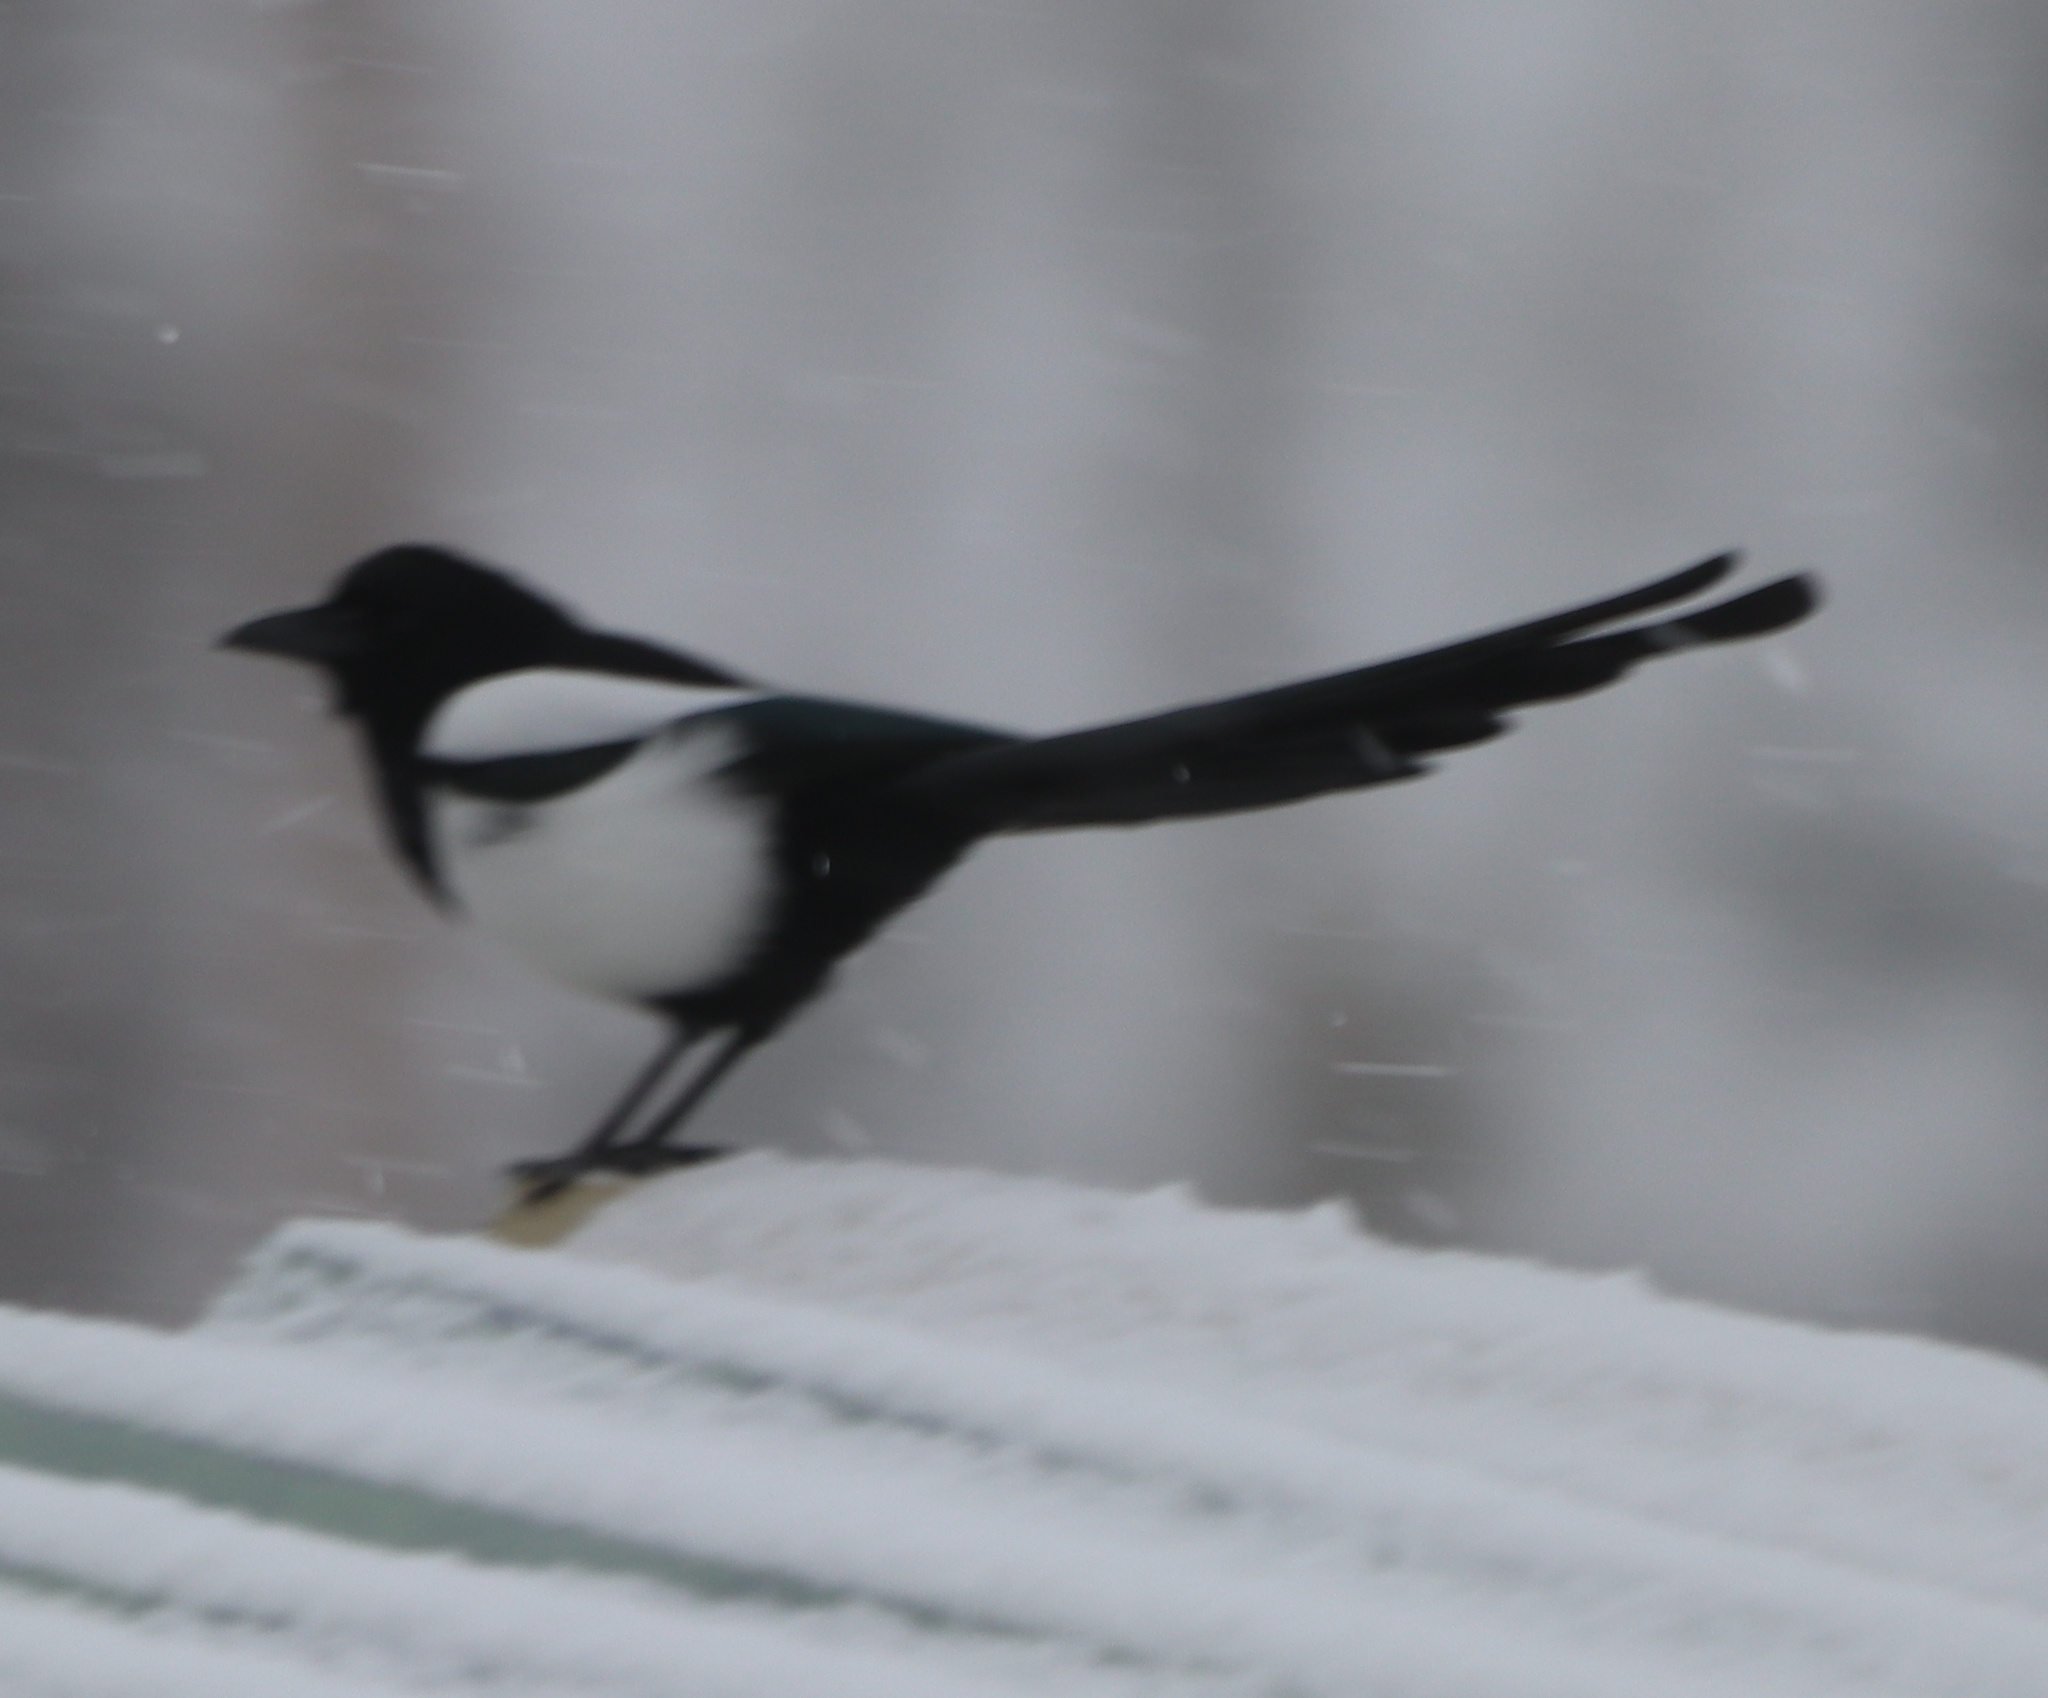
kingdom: Animalia
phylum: Chordata
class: Aves
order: Passeriformes
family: Corvidae
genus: Pica
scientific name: Pica hudsonia
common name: Black-billed magpie
